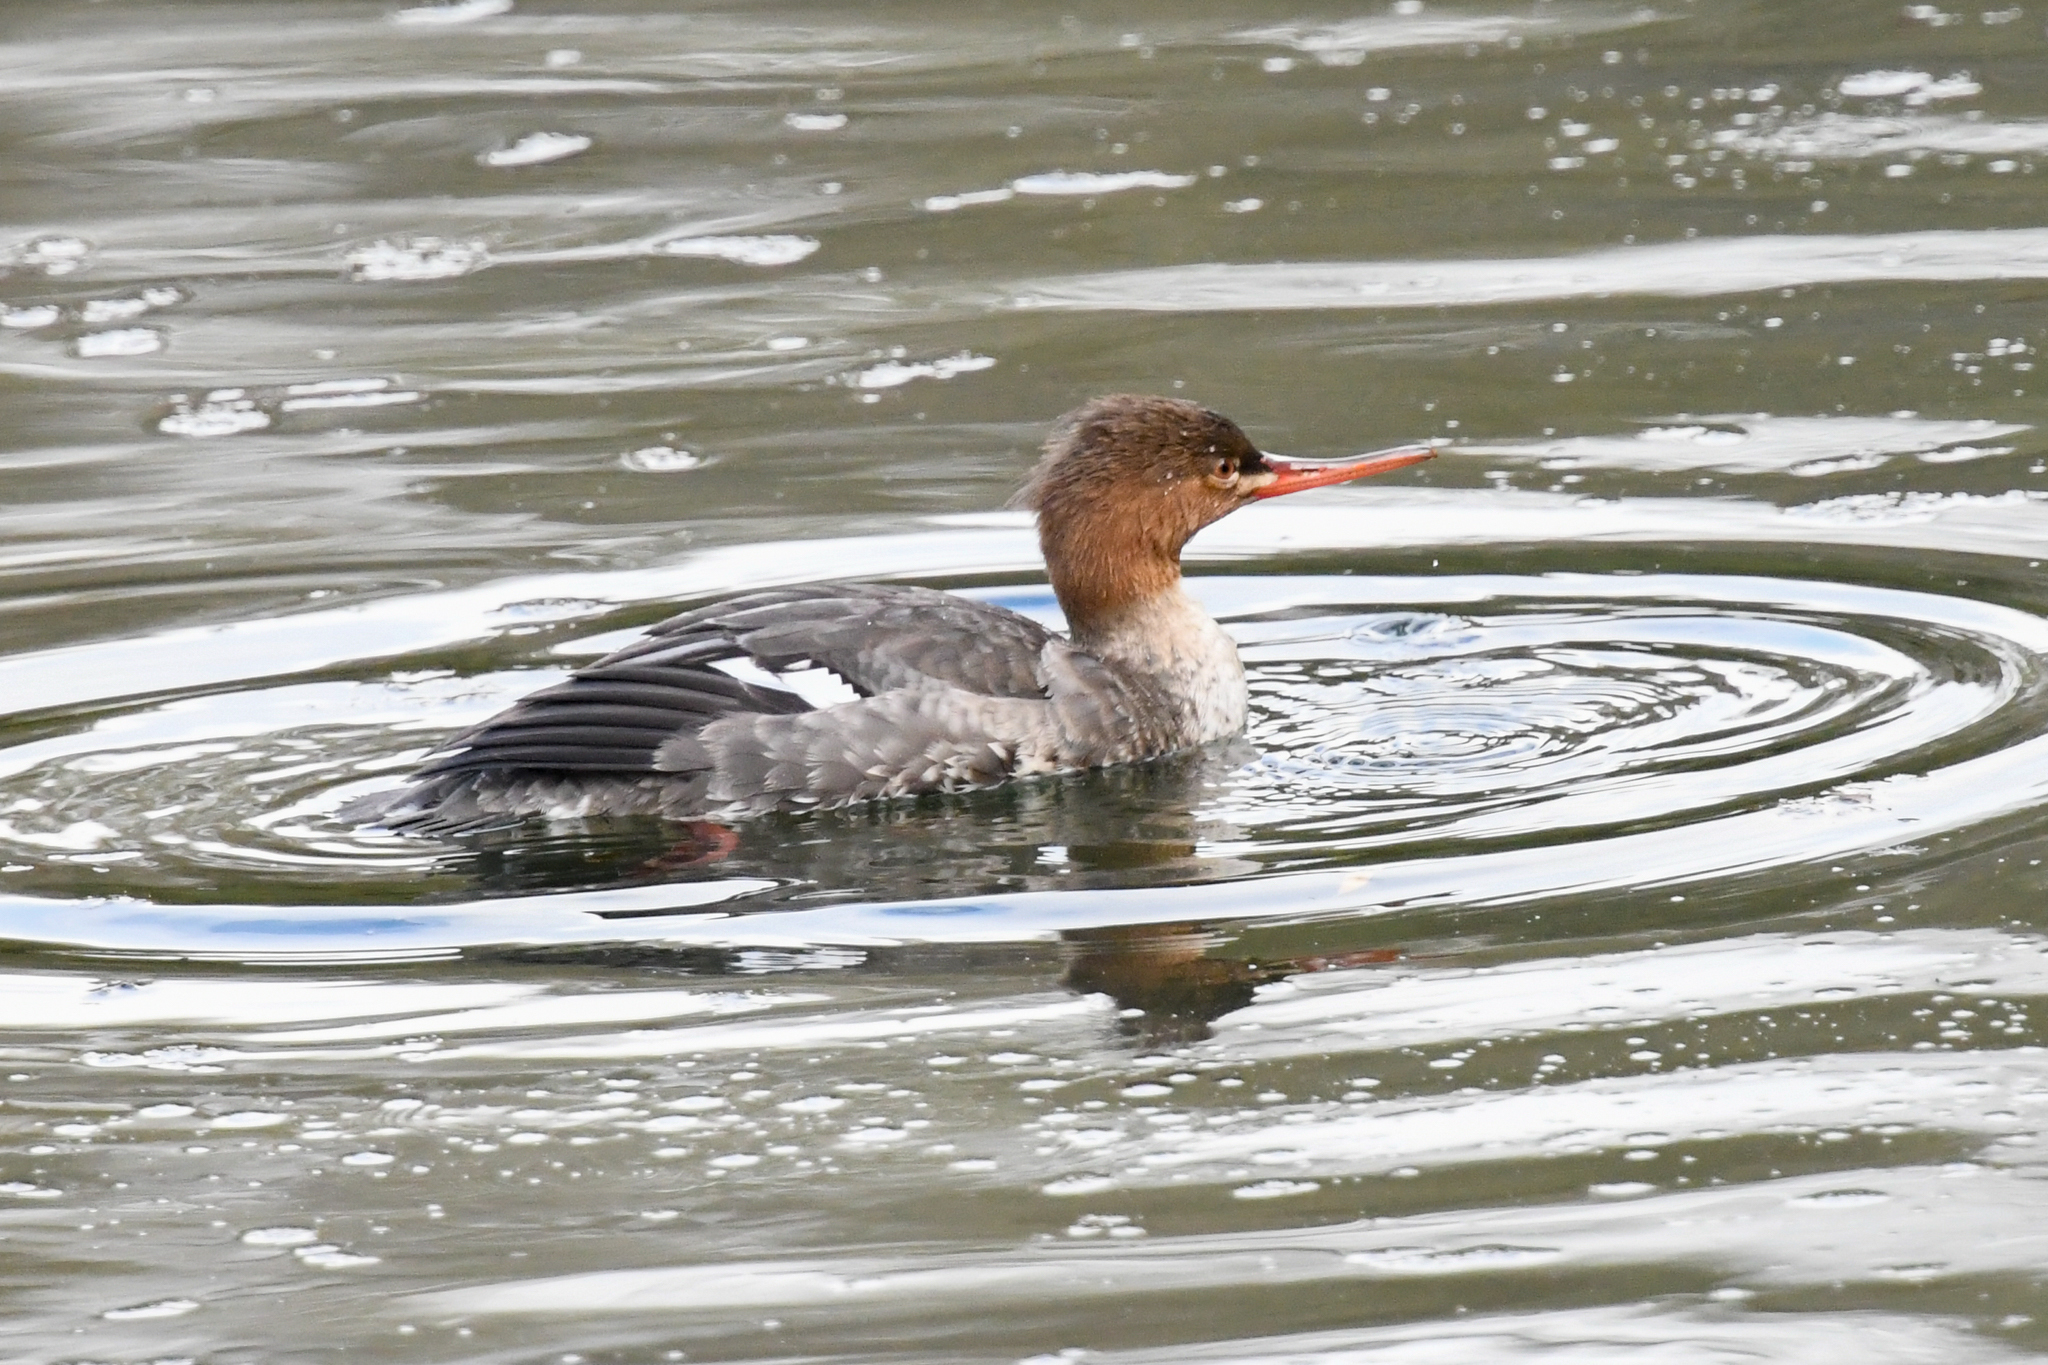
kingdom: Animalia
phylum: Chordata
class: Aves
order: Anseriformes
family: Anatidae
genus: Mergus
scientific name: Mergus serrator
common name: Red-breasted merganser
